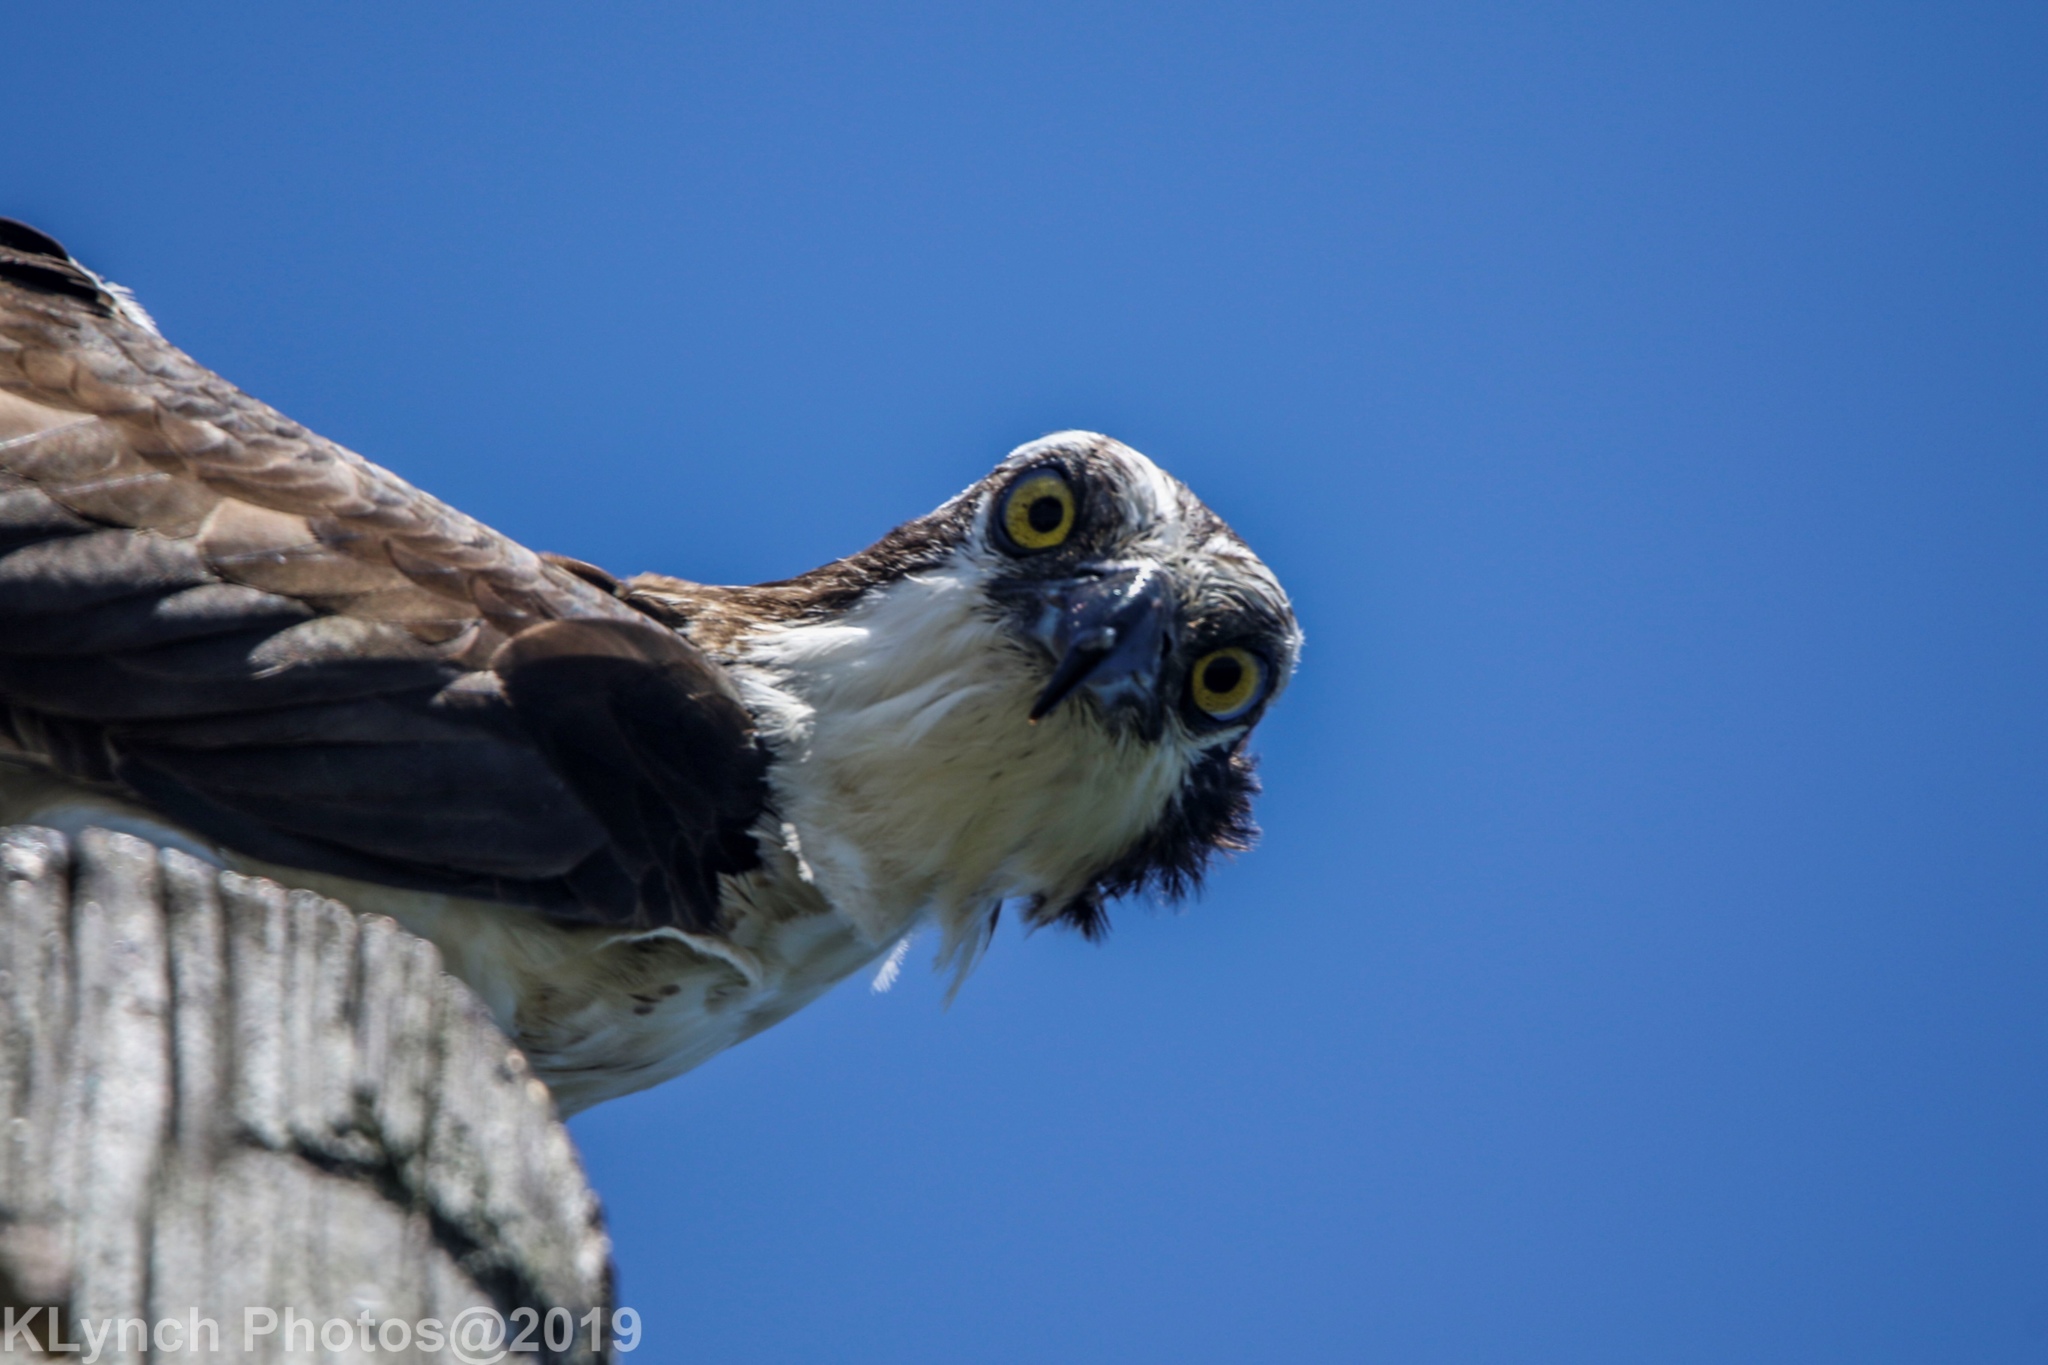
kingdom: Animalia
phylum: Chordata
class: Aves
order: Accipitriformes
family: Pandionidae
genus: Pandion
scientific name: Pandion haliaetus
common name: Osprey
